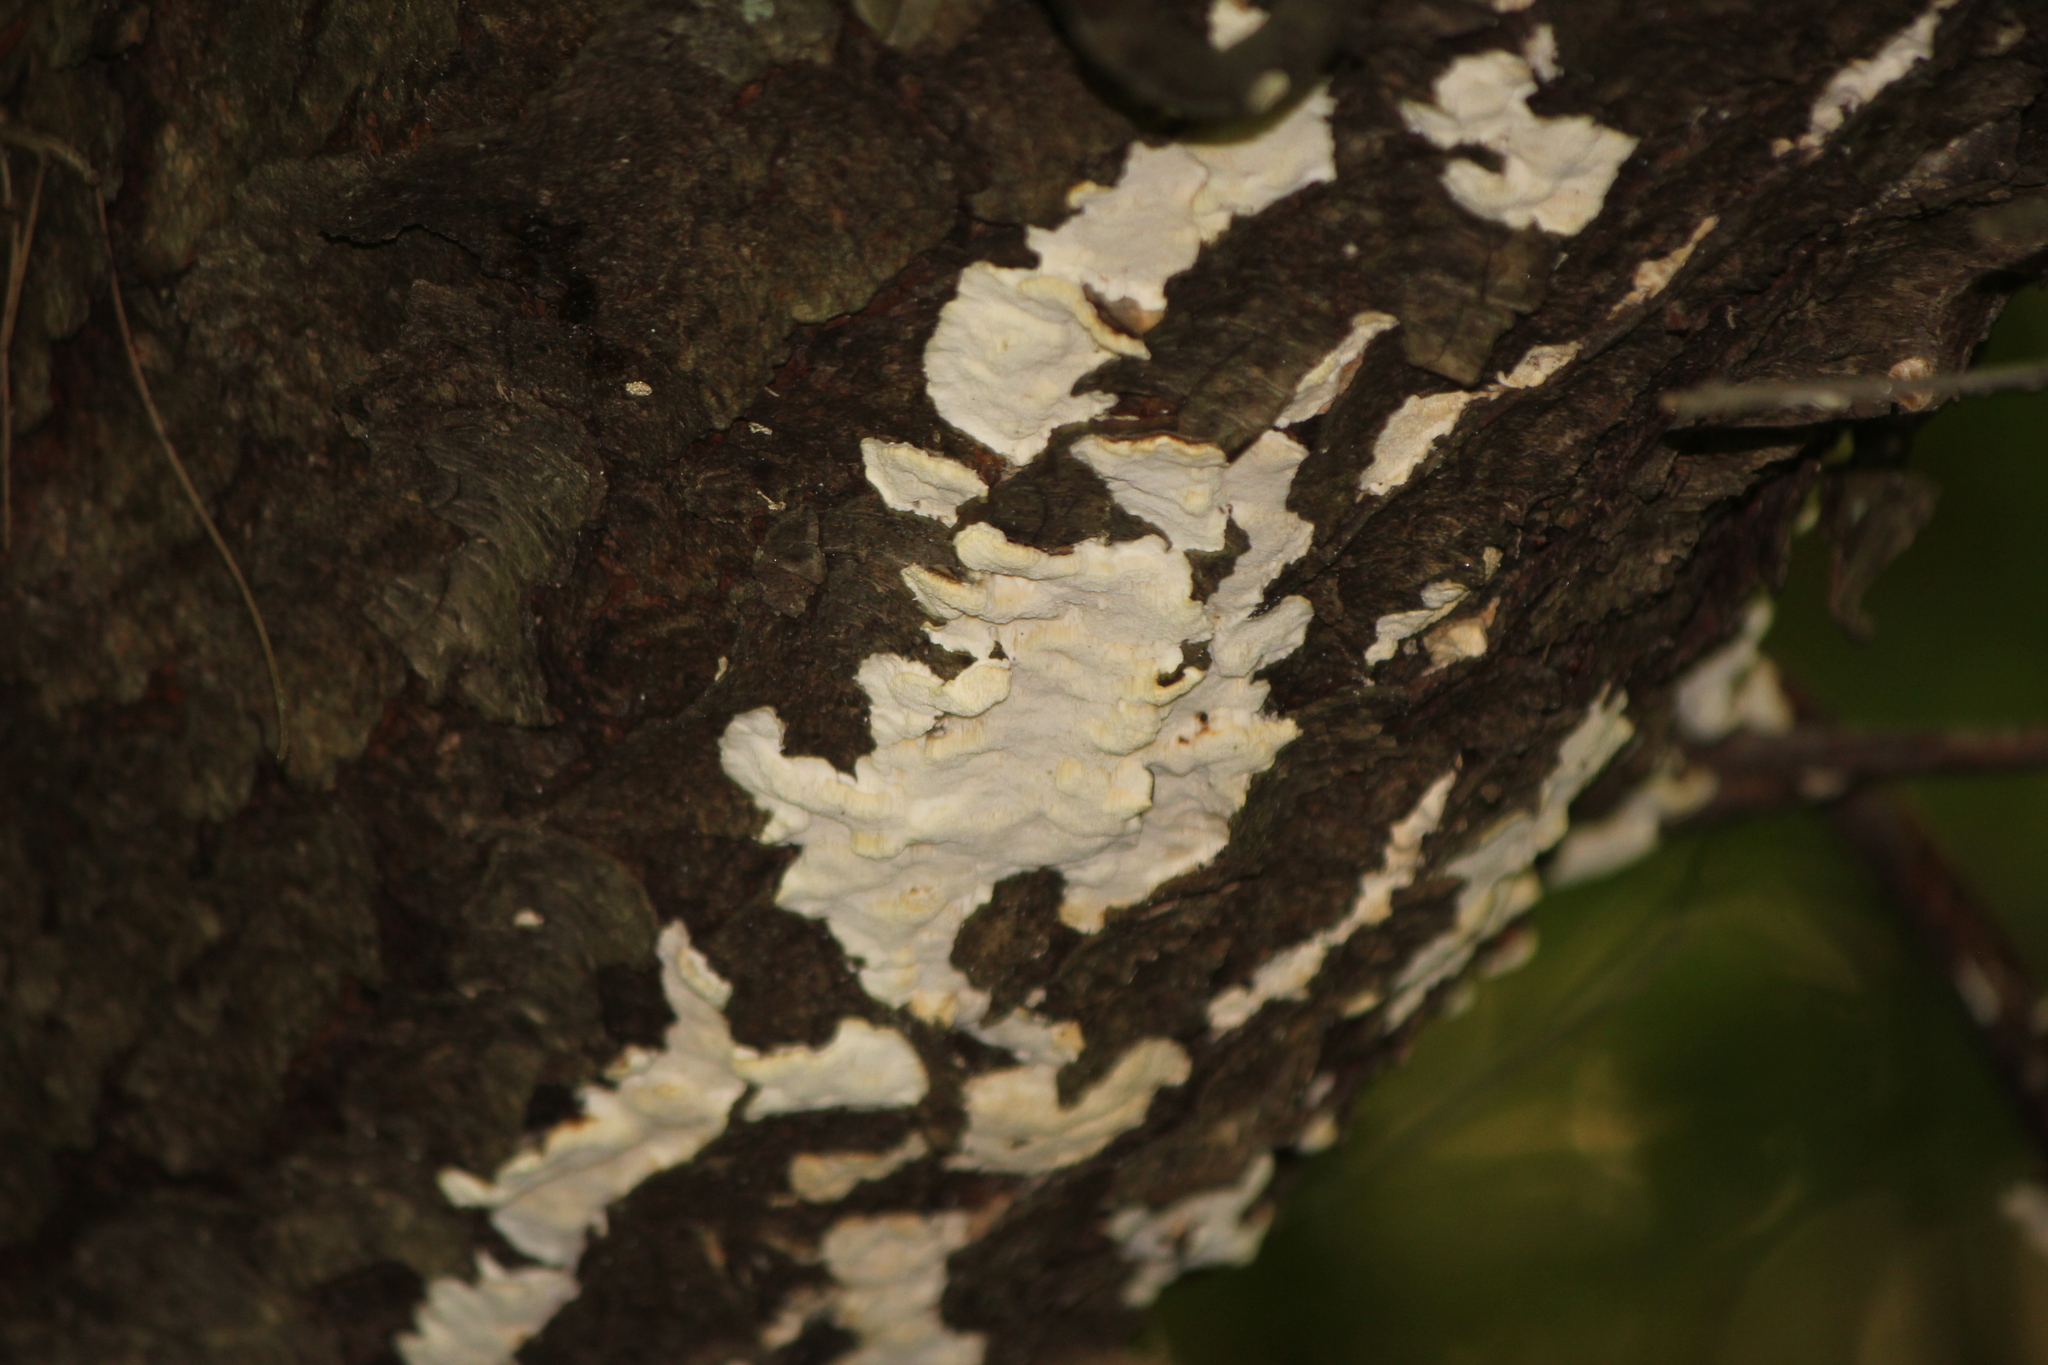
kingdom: Fungi
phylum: Basidiomycota
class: Agaricomycetes
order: Polyporales
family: Irpicaceae
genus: Irpex
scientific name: Irpex lacteus
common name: Milk-white toothed polypore
